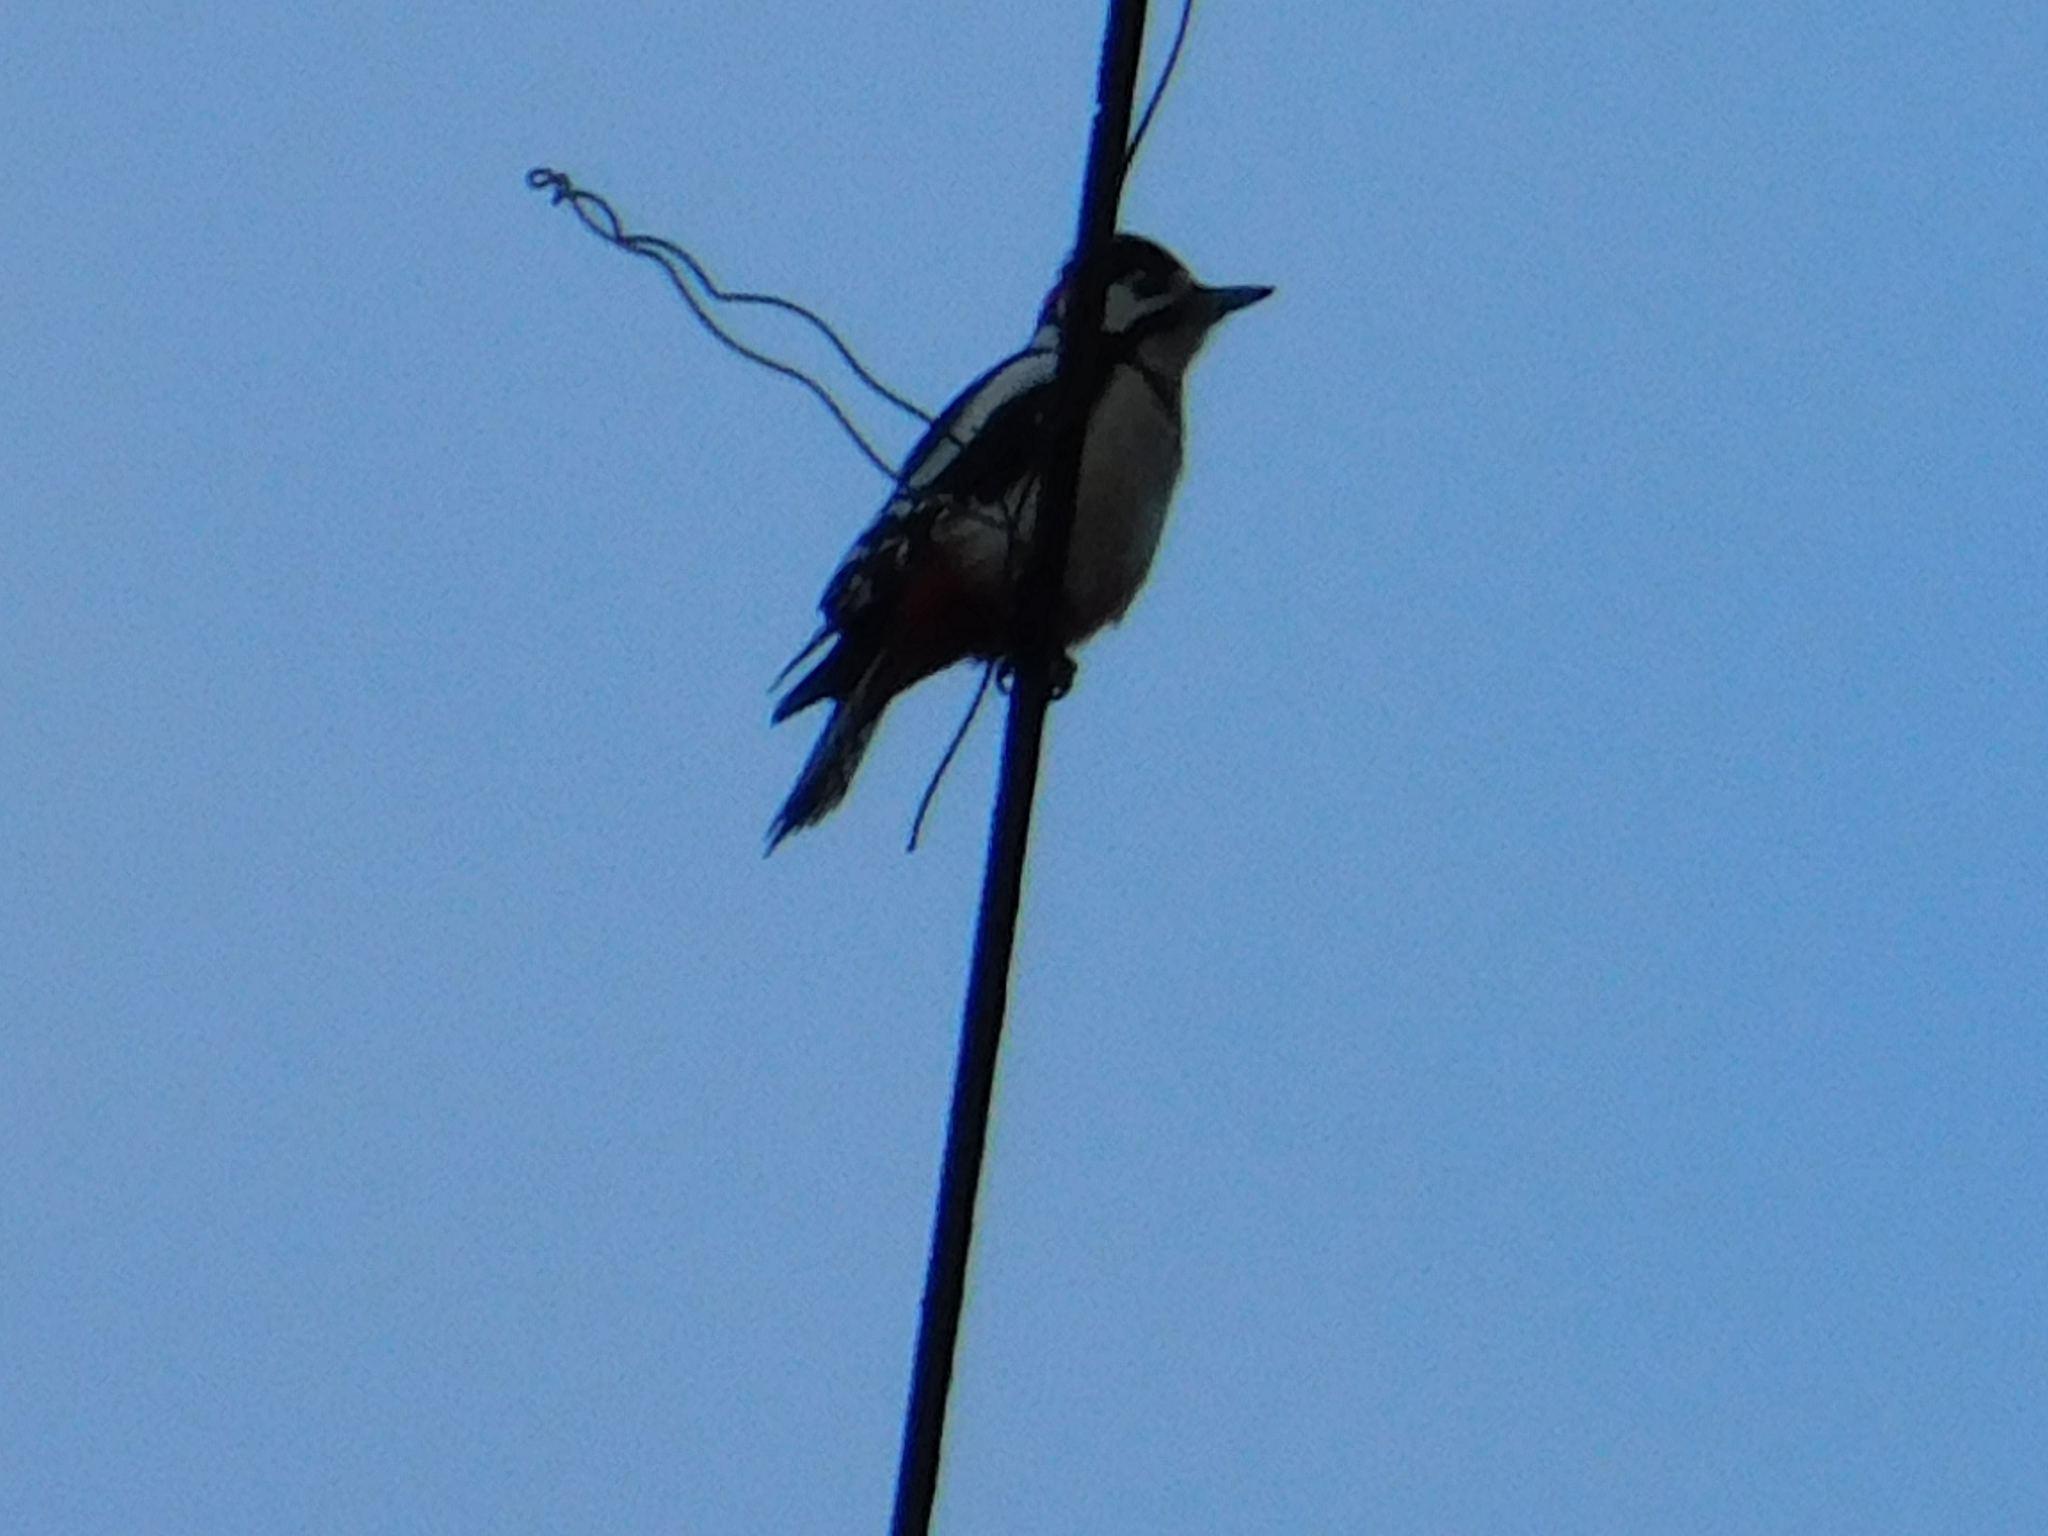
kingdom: Animalia
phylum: Chordata
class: Aves
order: Piciformes
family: Picidae
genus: Dendrocopos
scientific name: Dendrocopos major
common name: Great spotted woodpecker
